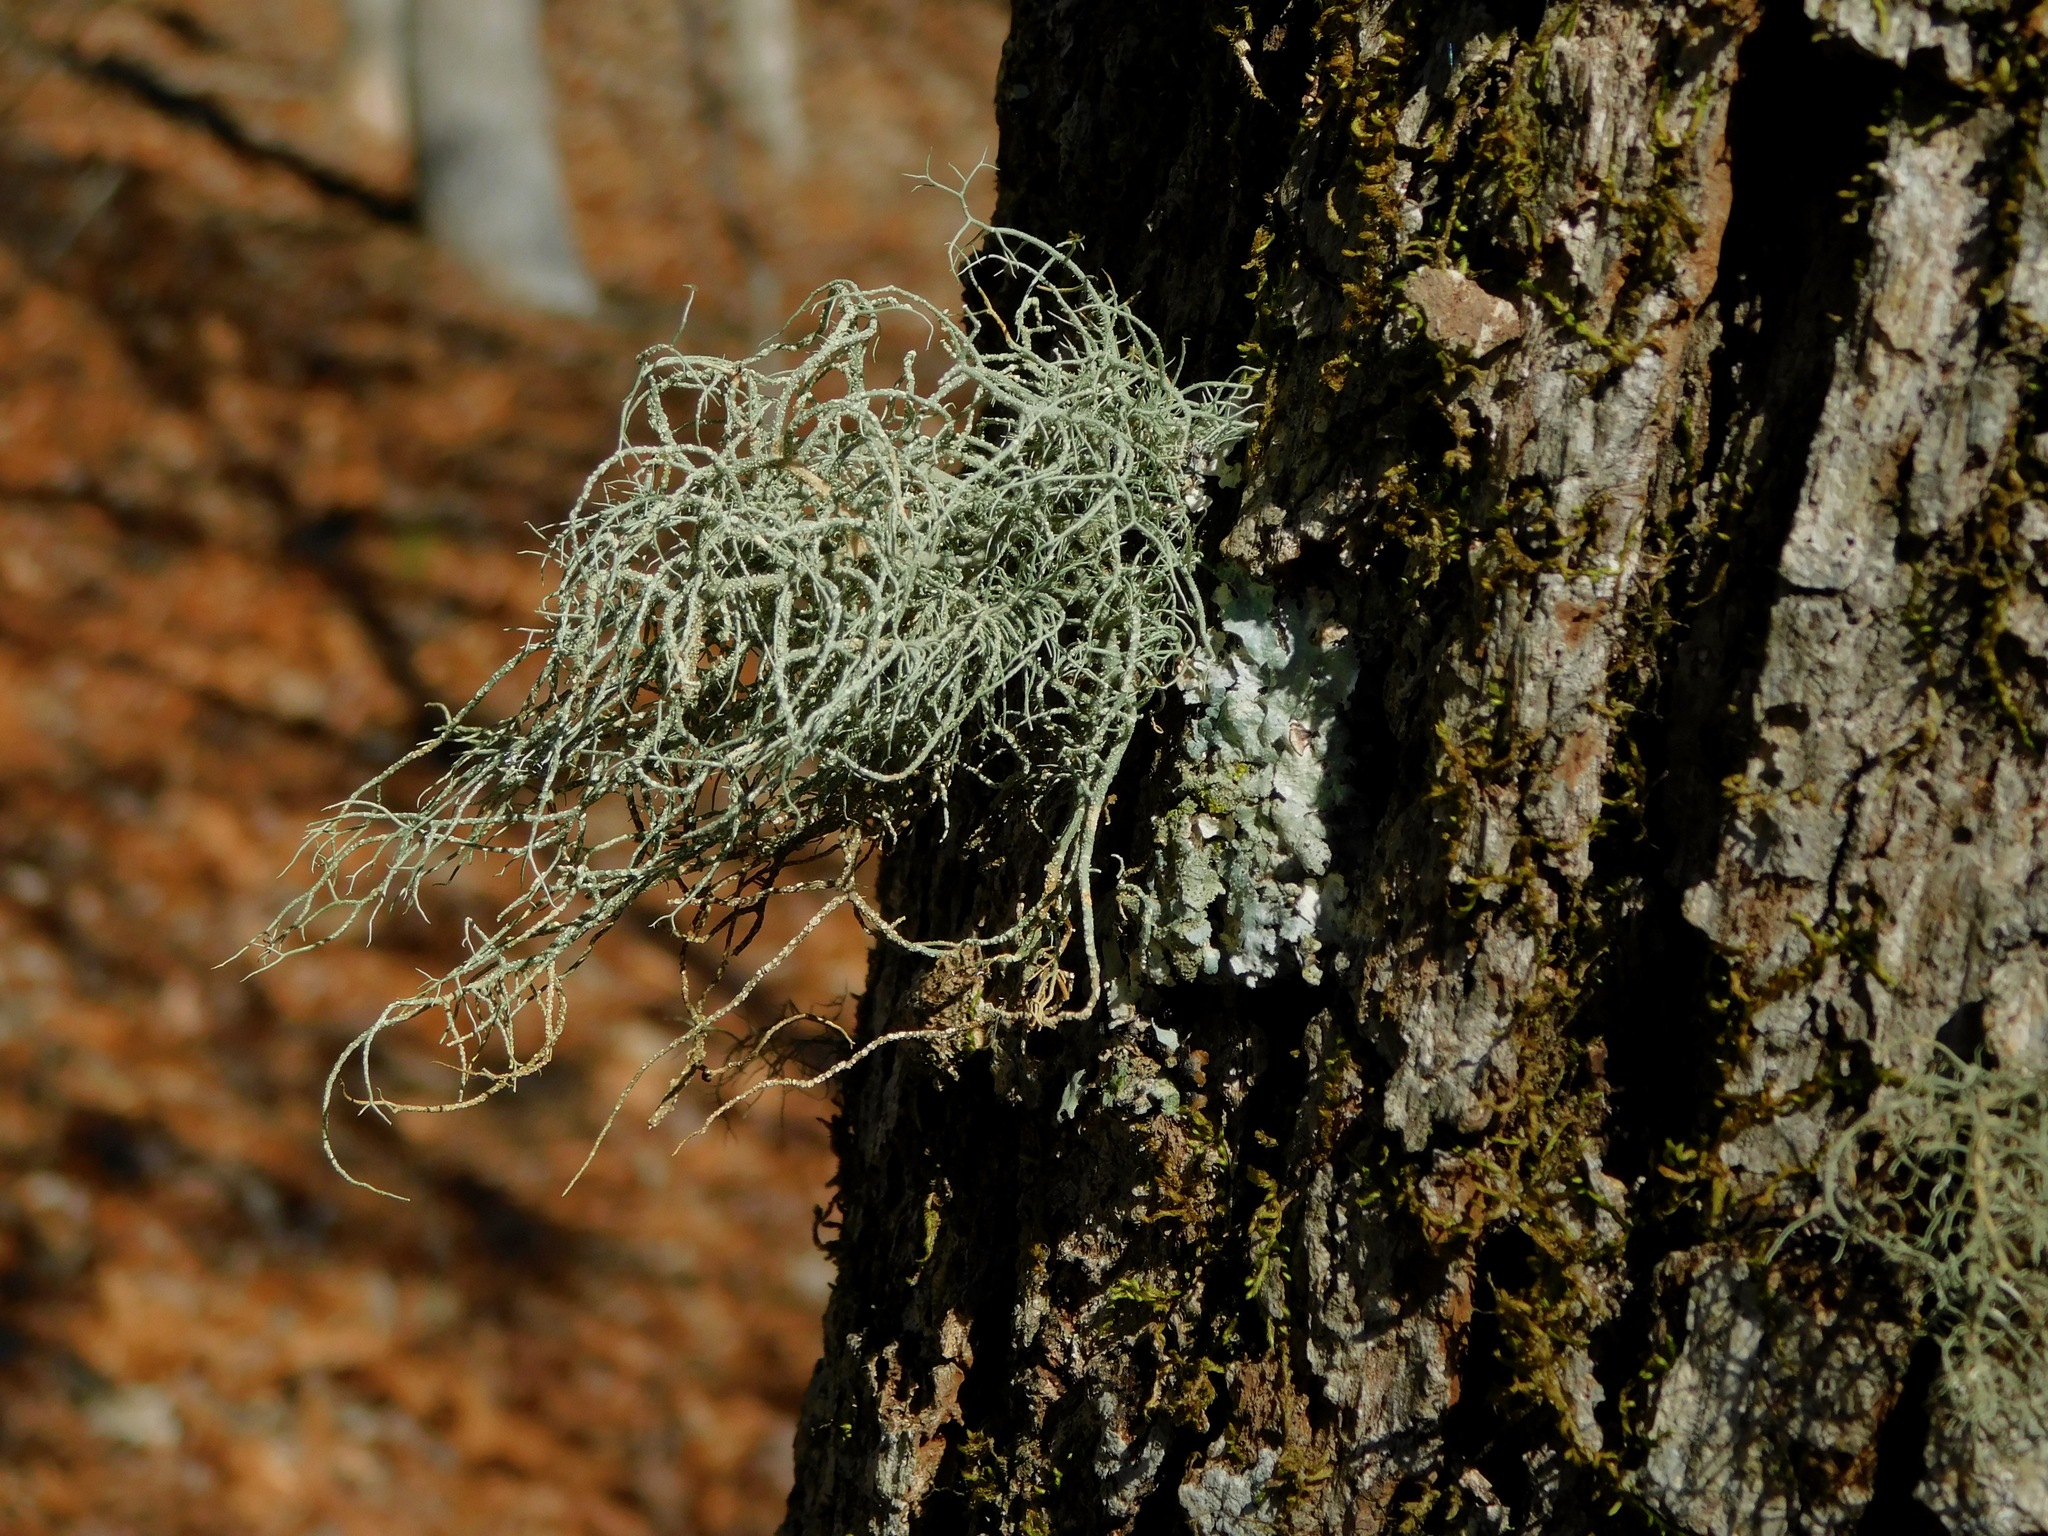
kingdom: Fungi
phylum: Ascomycota
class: Lecanoromycetes
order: Lecanorales
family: Parmeliaceae
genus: Usnea
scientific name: Usnea subscabrosa
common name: Beard lichen
